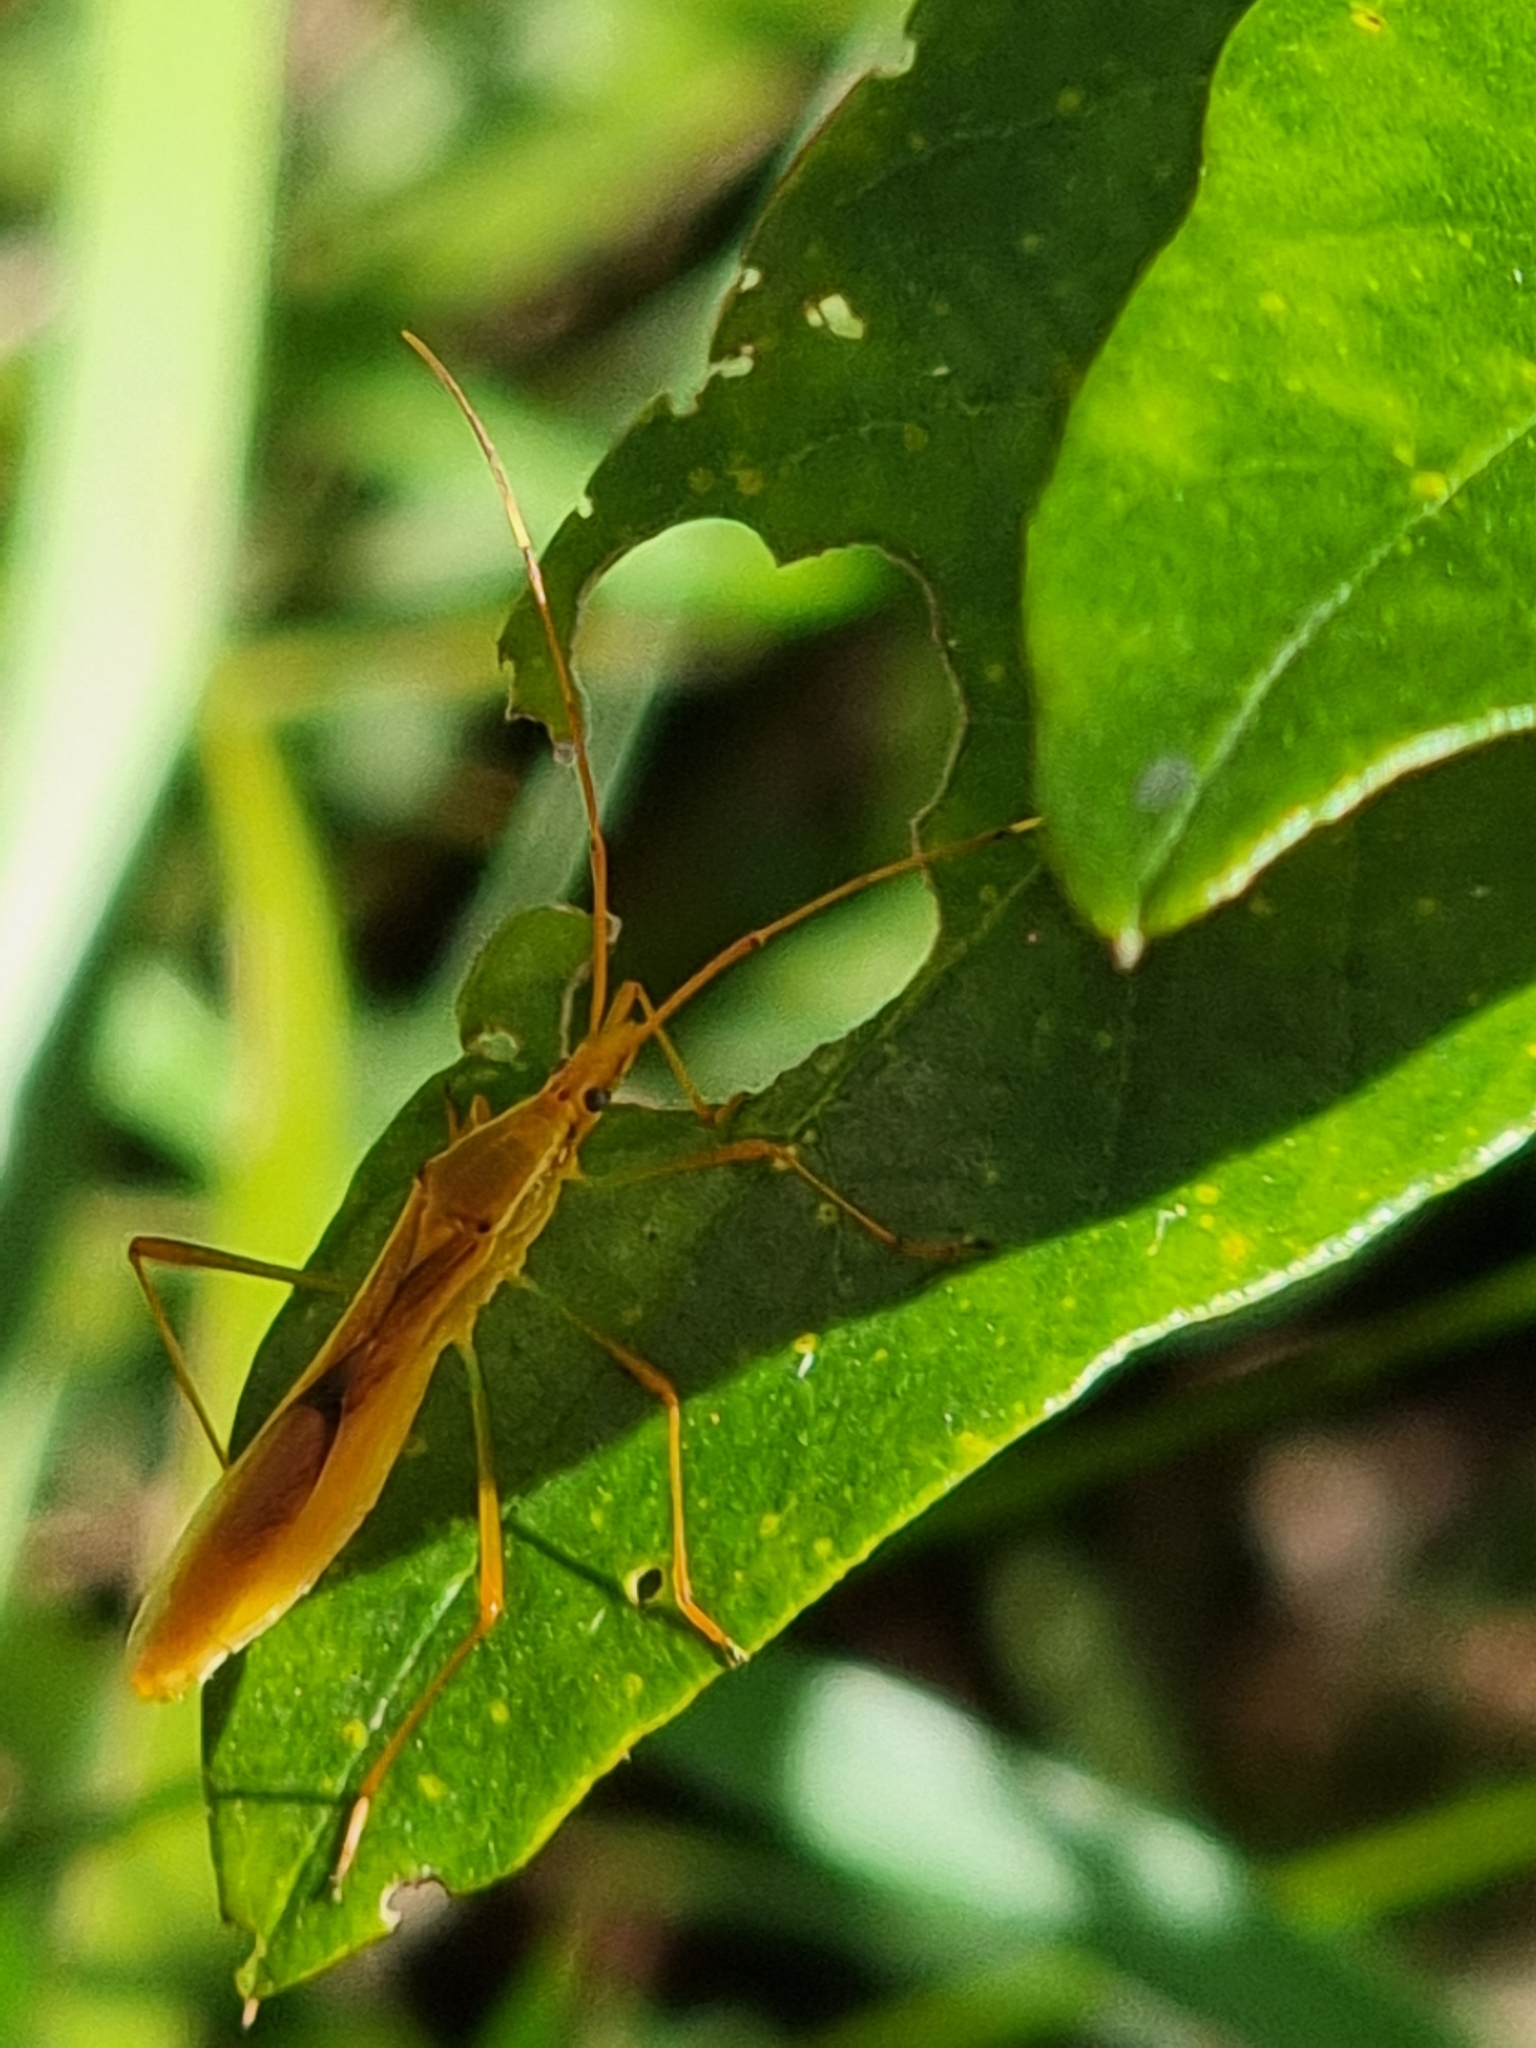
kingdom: Animalia
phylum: Arthropoda
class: Insecta
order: Hemiptera
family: Alydidae
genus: Leptocorisa
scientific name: Leptocorisa acuta
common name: Gandhi bug
